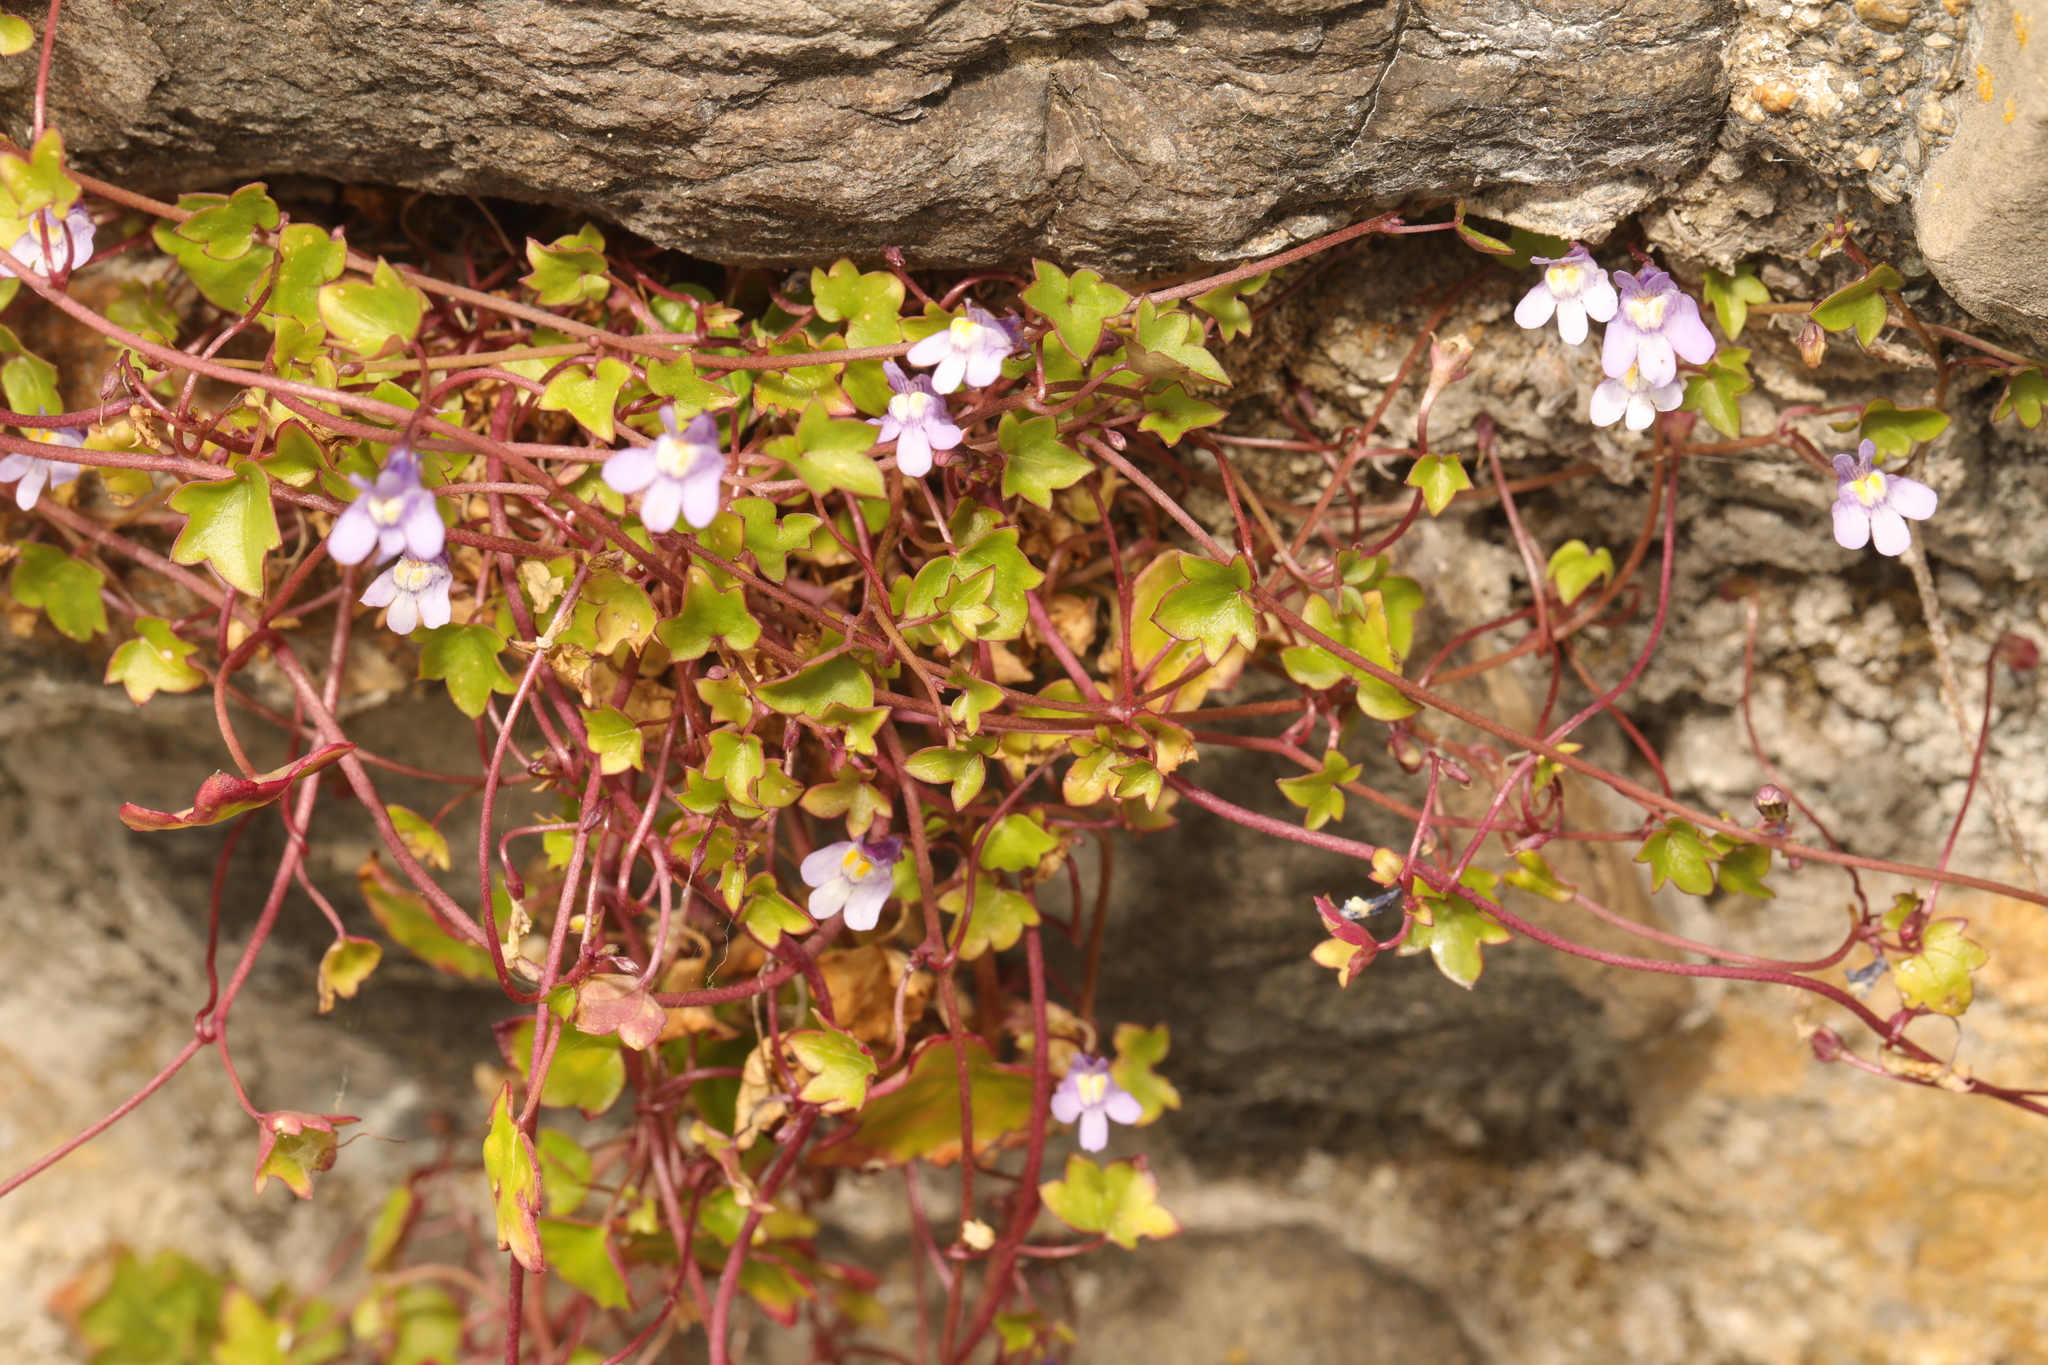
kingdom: Plantae
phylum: Tracheophyta
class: Magnoliopsida
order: Lamiales
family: Plantaginaceae
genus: Cymbalaria
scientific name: Cymbalaria muralis
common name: Ivy-leaved toadflax
